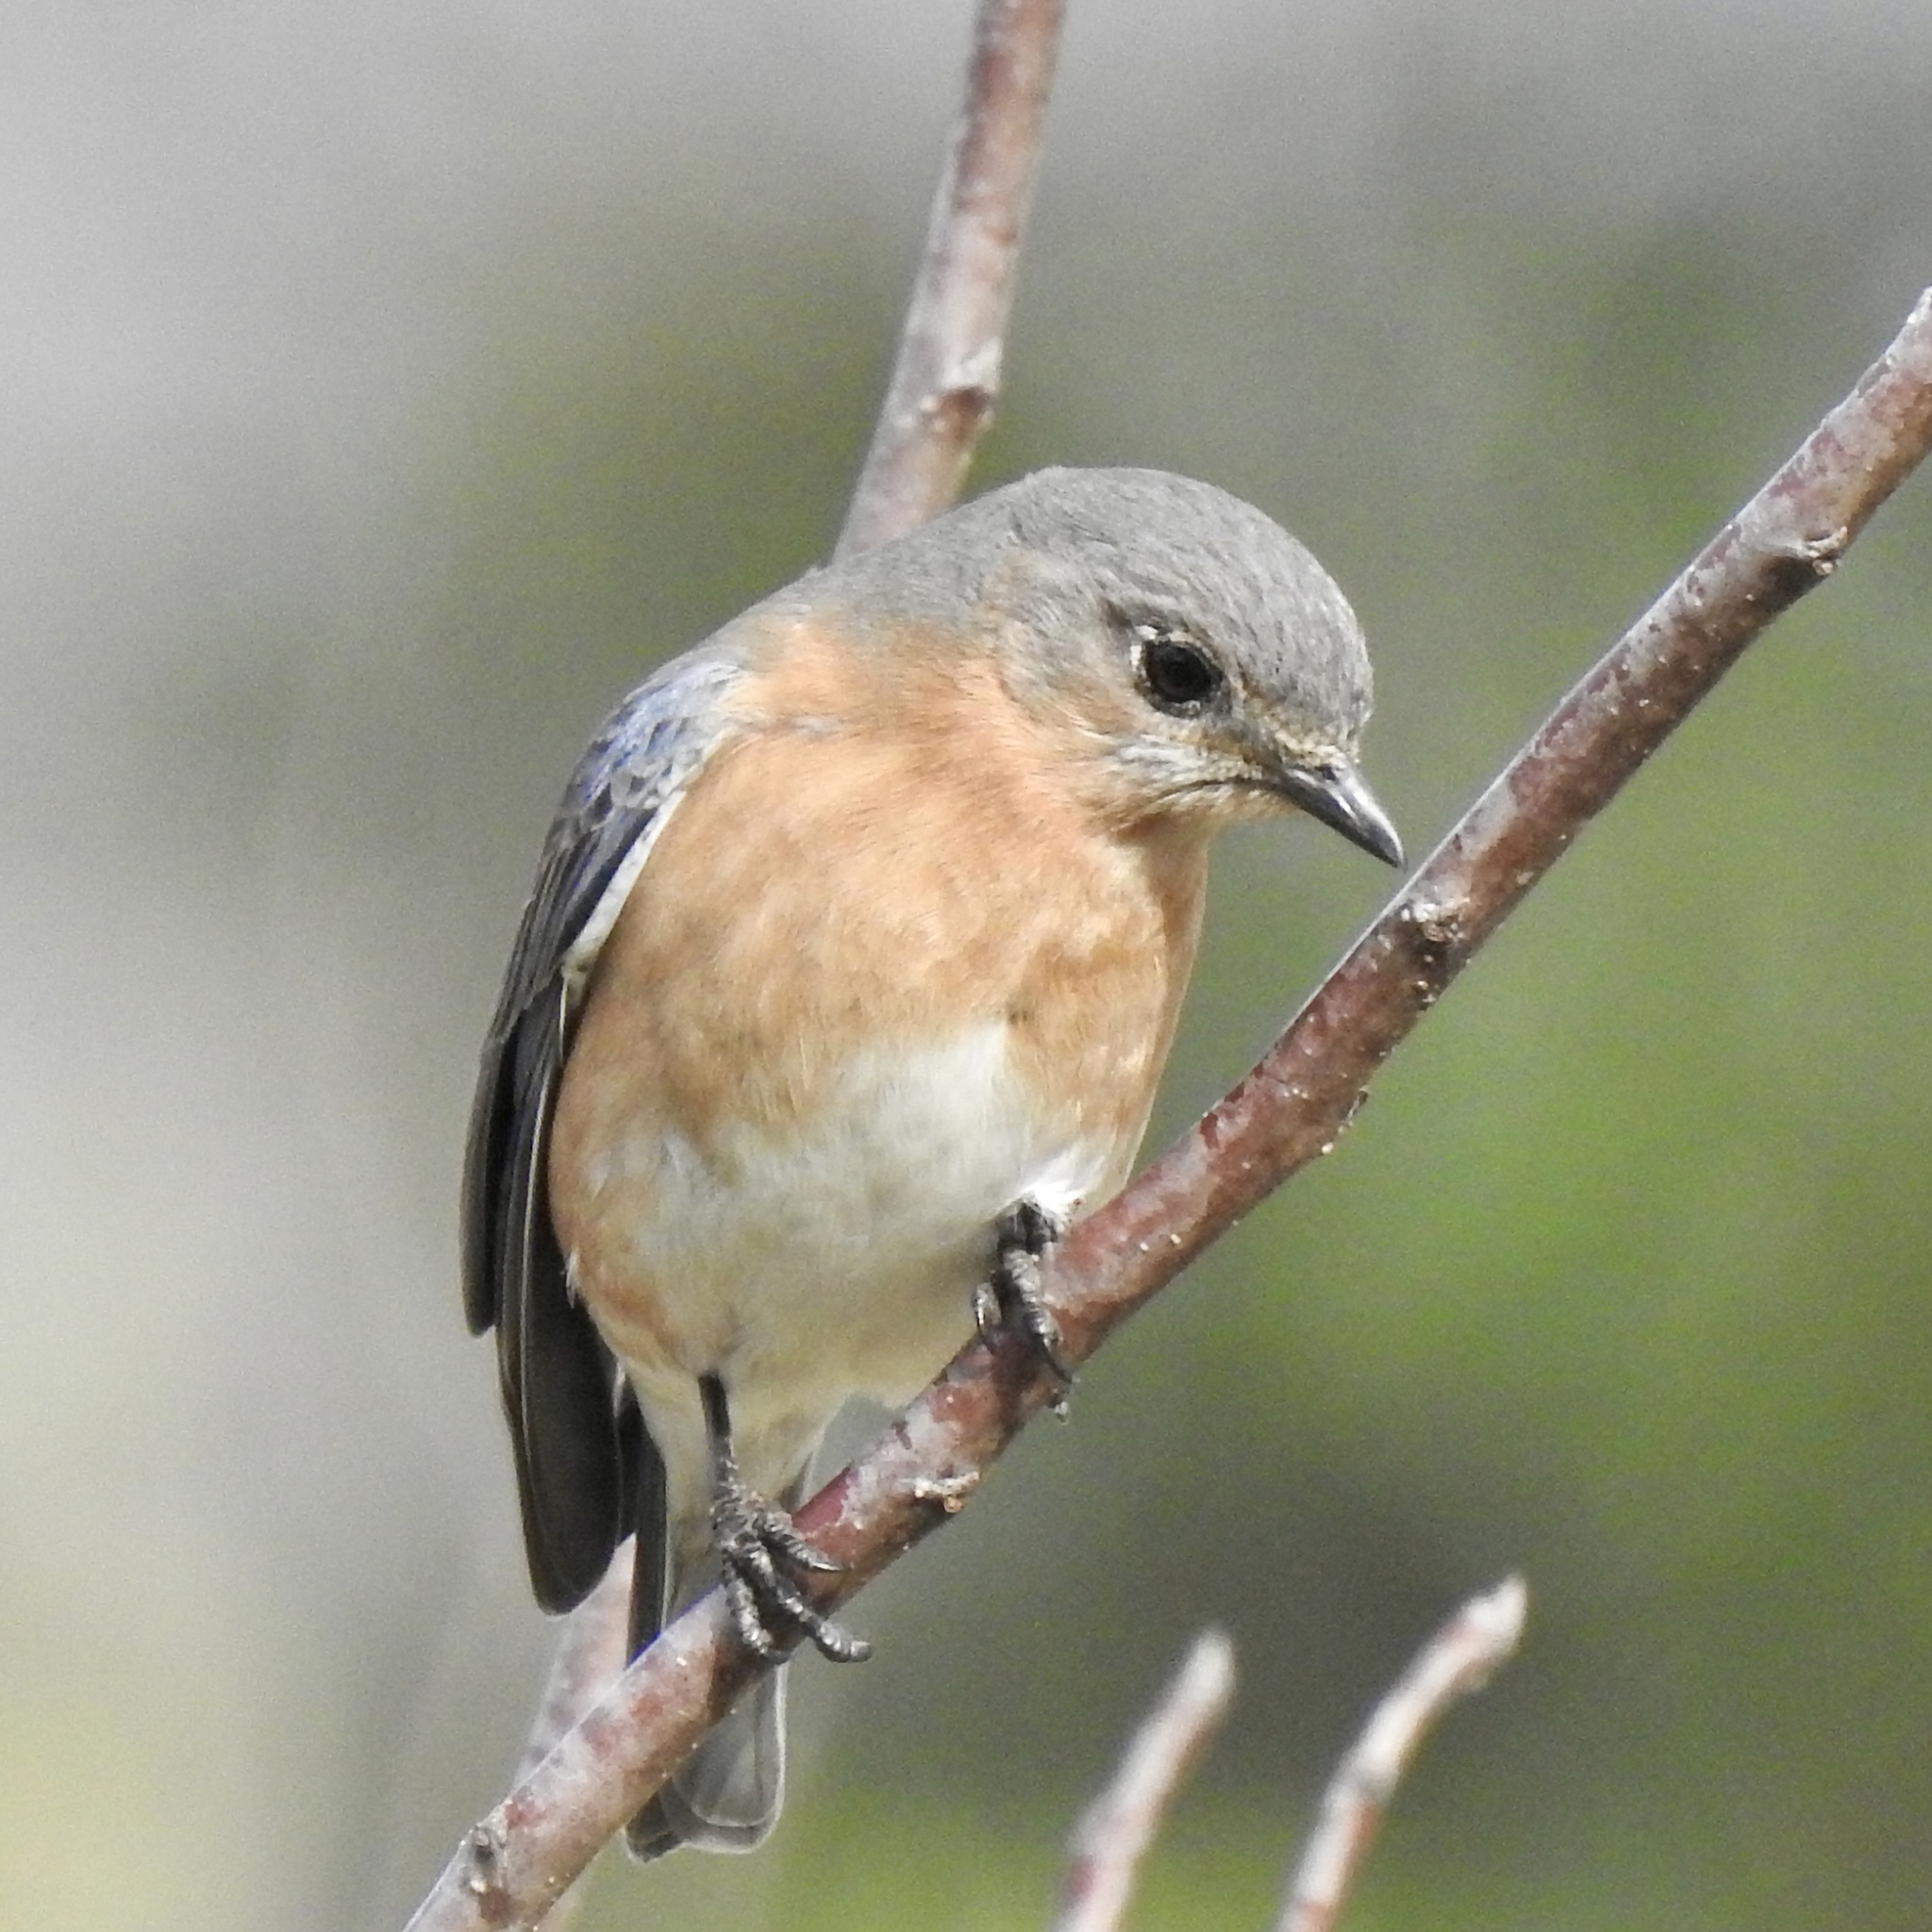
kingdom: Animalia
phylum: Chordata
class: Aves
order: Passeriformes
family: Turdidae
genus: Sialia
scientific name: Sialia sialis
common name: Eastern bluebird
